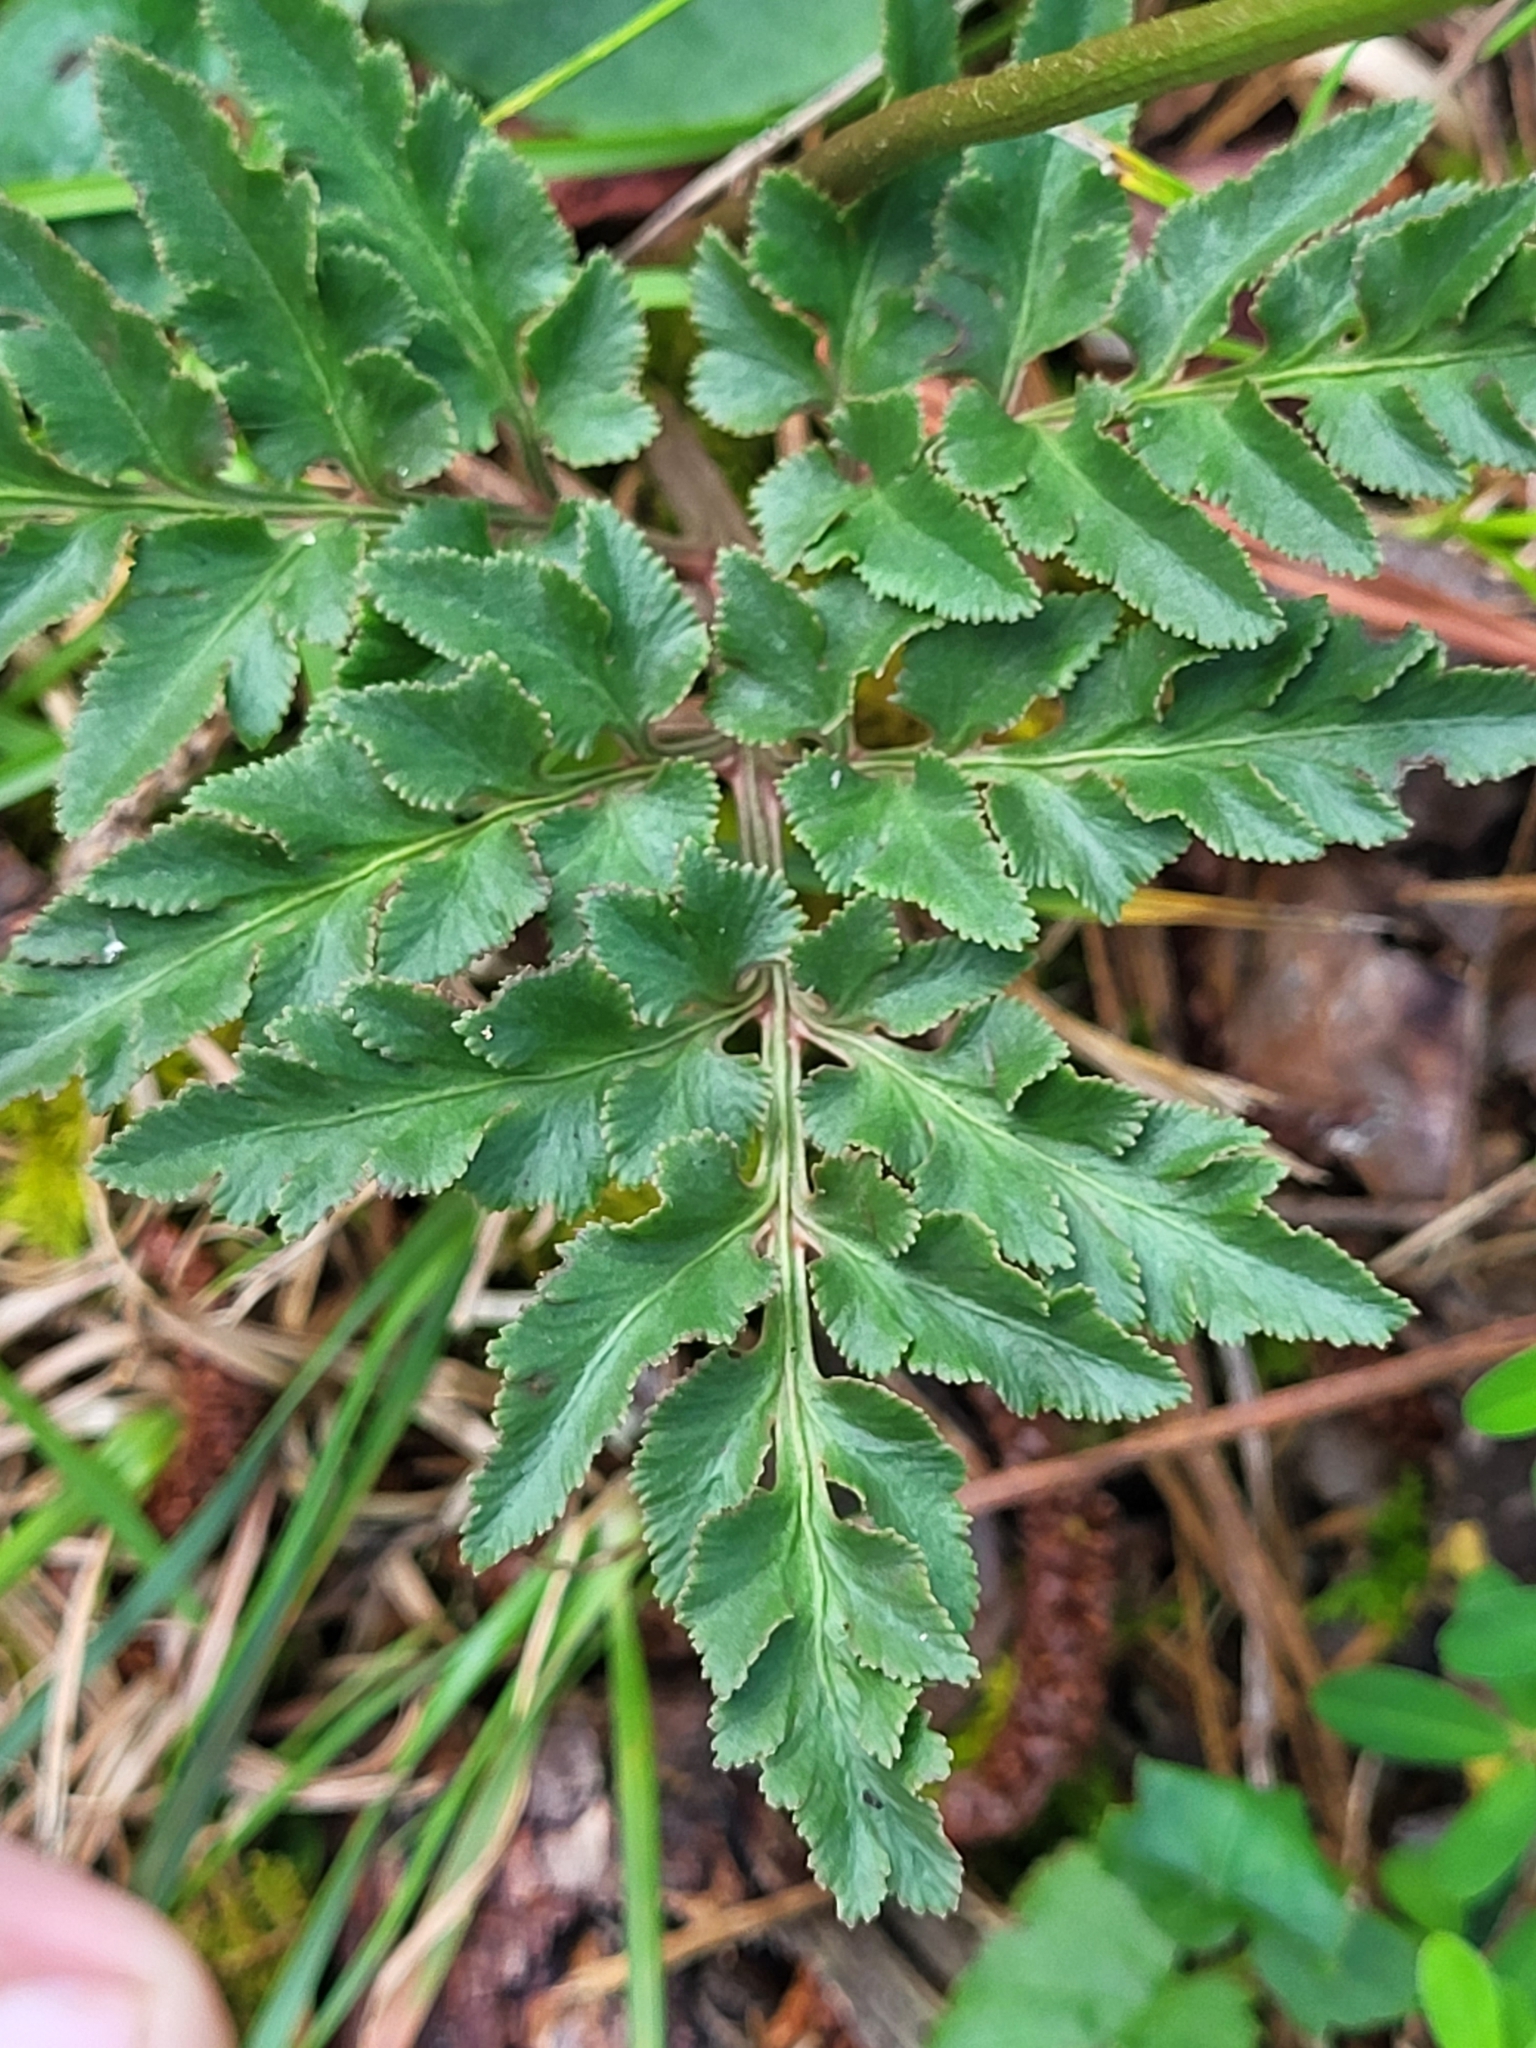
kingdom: Plantae
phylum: Tracheophyta
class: Polypodiopsida
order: Ophioglossales
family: Ophioglossaceae
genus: Sceptridium
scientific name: Sceptridium dissectum
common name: Cut-leaved grapefern
